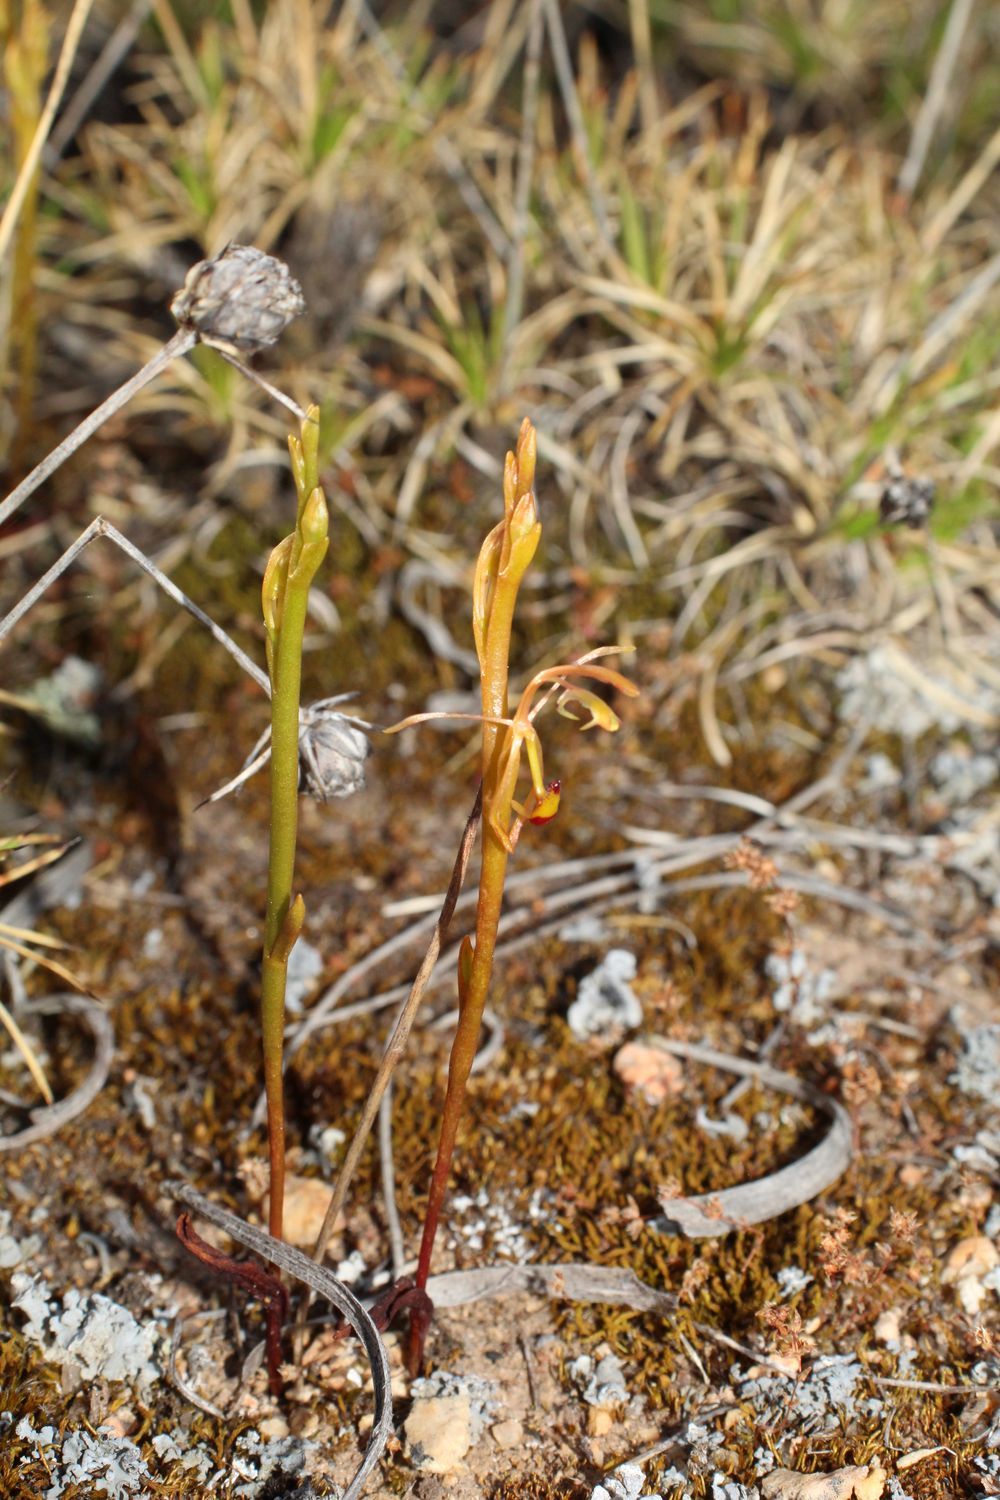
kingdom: Plantae
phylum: Tracheophyta
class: Liliopsida
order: Asparagales
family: Orchidaceae
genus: Spiculaea
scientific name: Spiculaea ciliata
